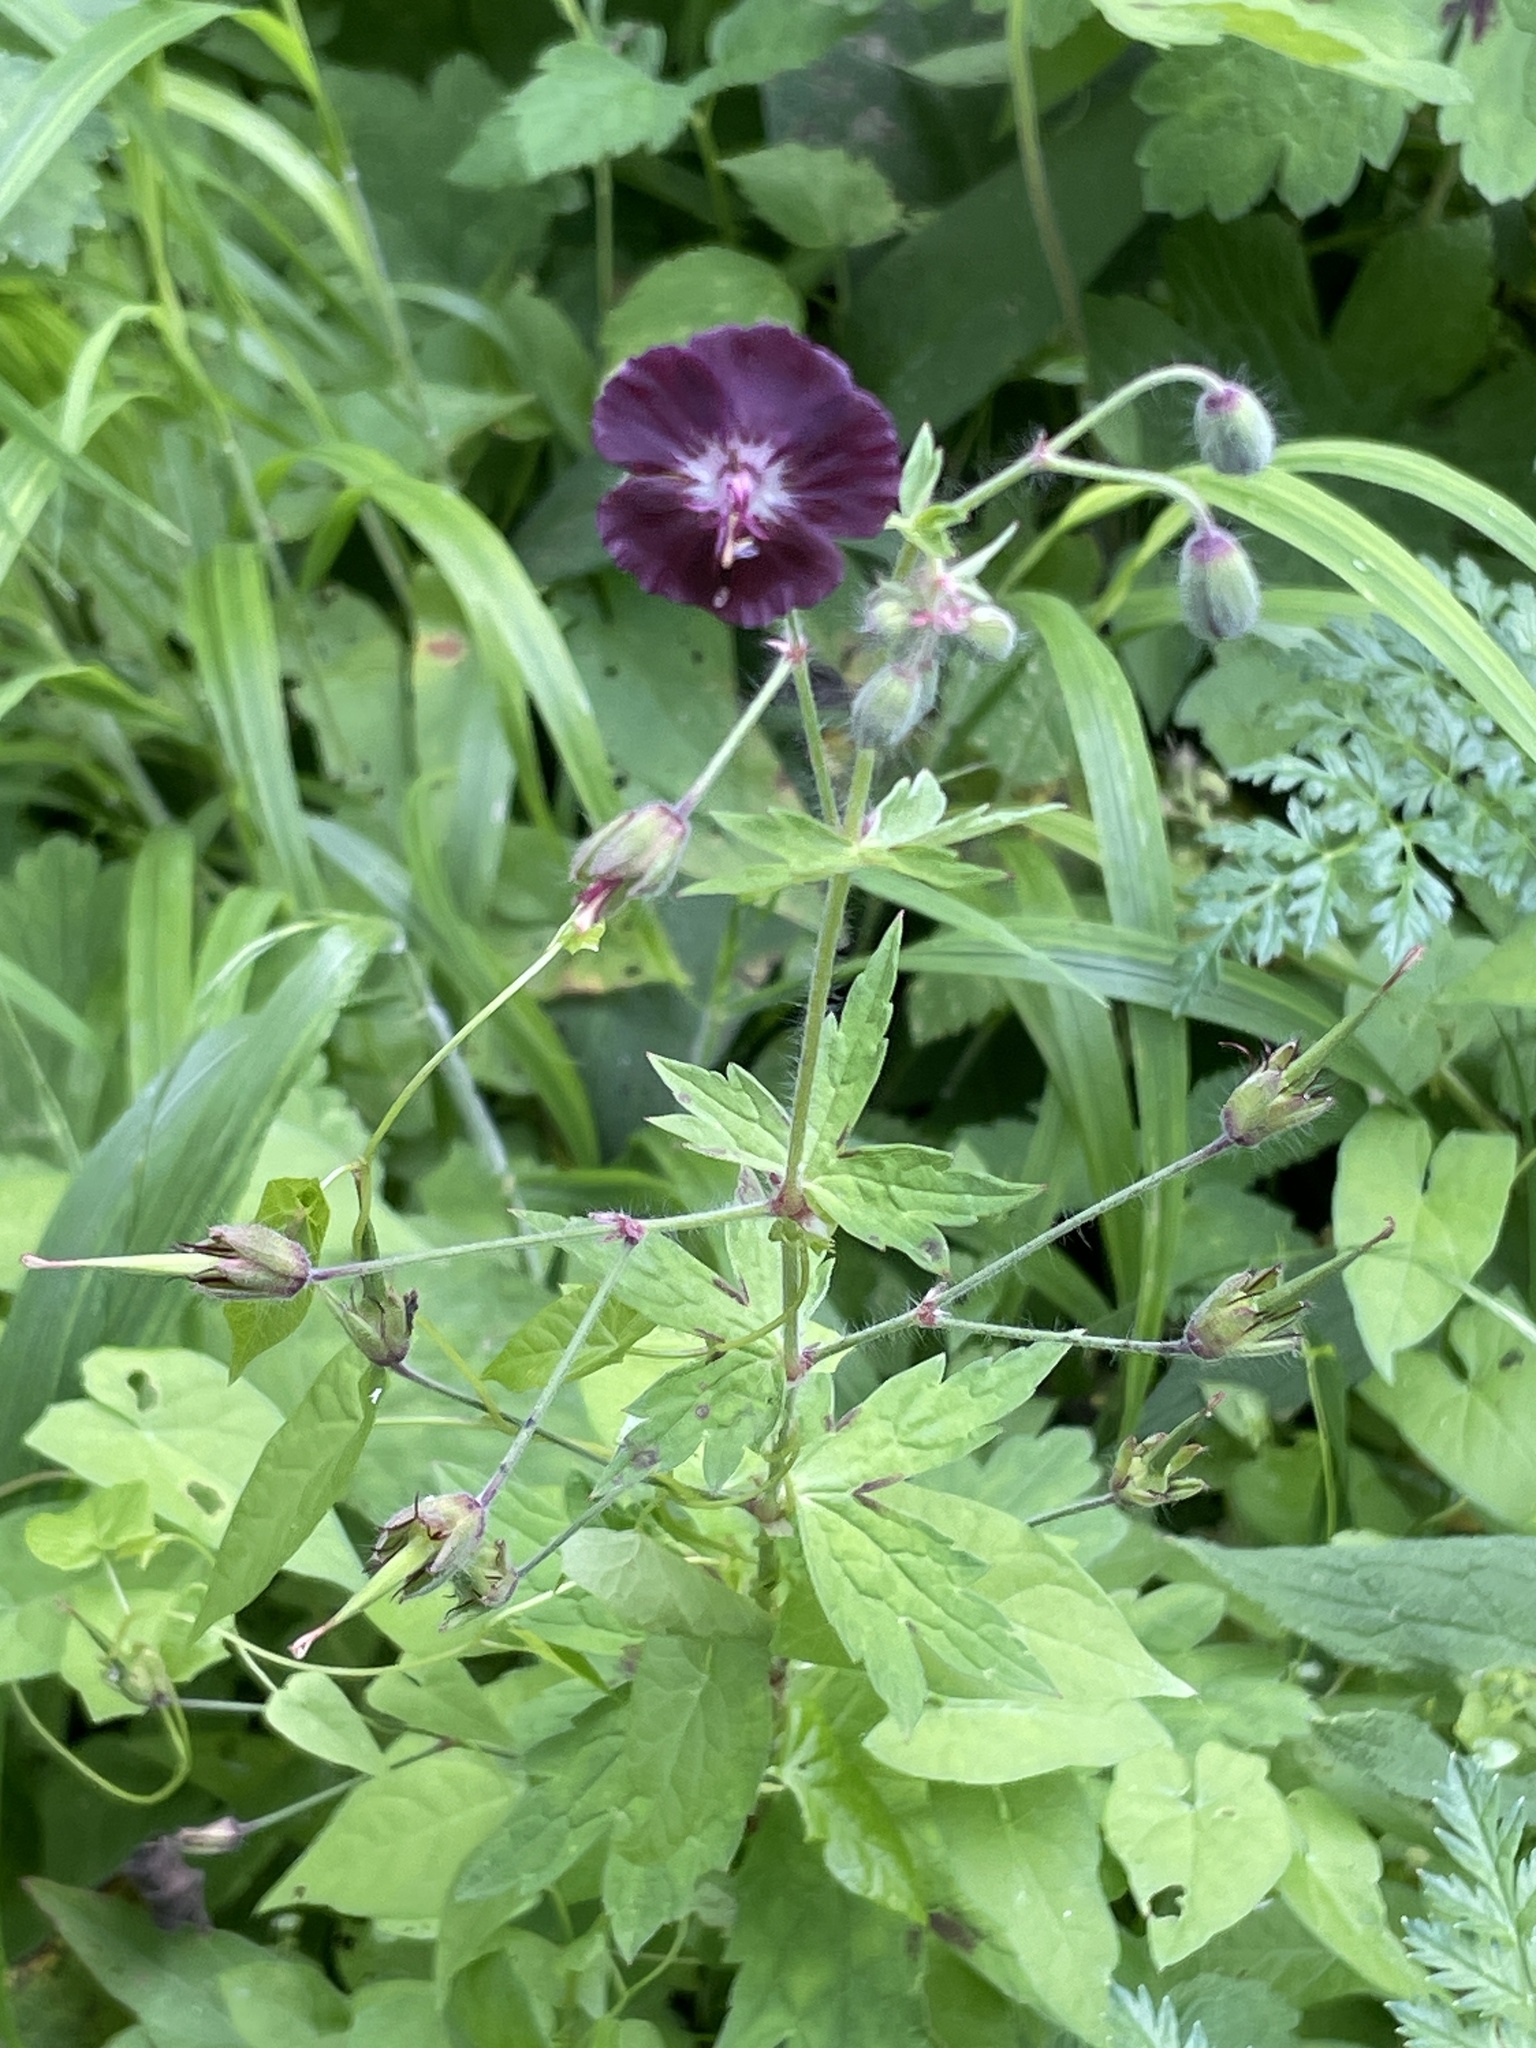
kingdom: Plantae
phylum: Tracheophyta
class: Magnoliopsida
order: Geraniales
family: Geraniaceae
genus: Geranium
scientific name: Geranium phaeum
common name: Dusky crane's-bill
